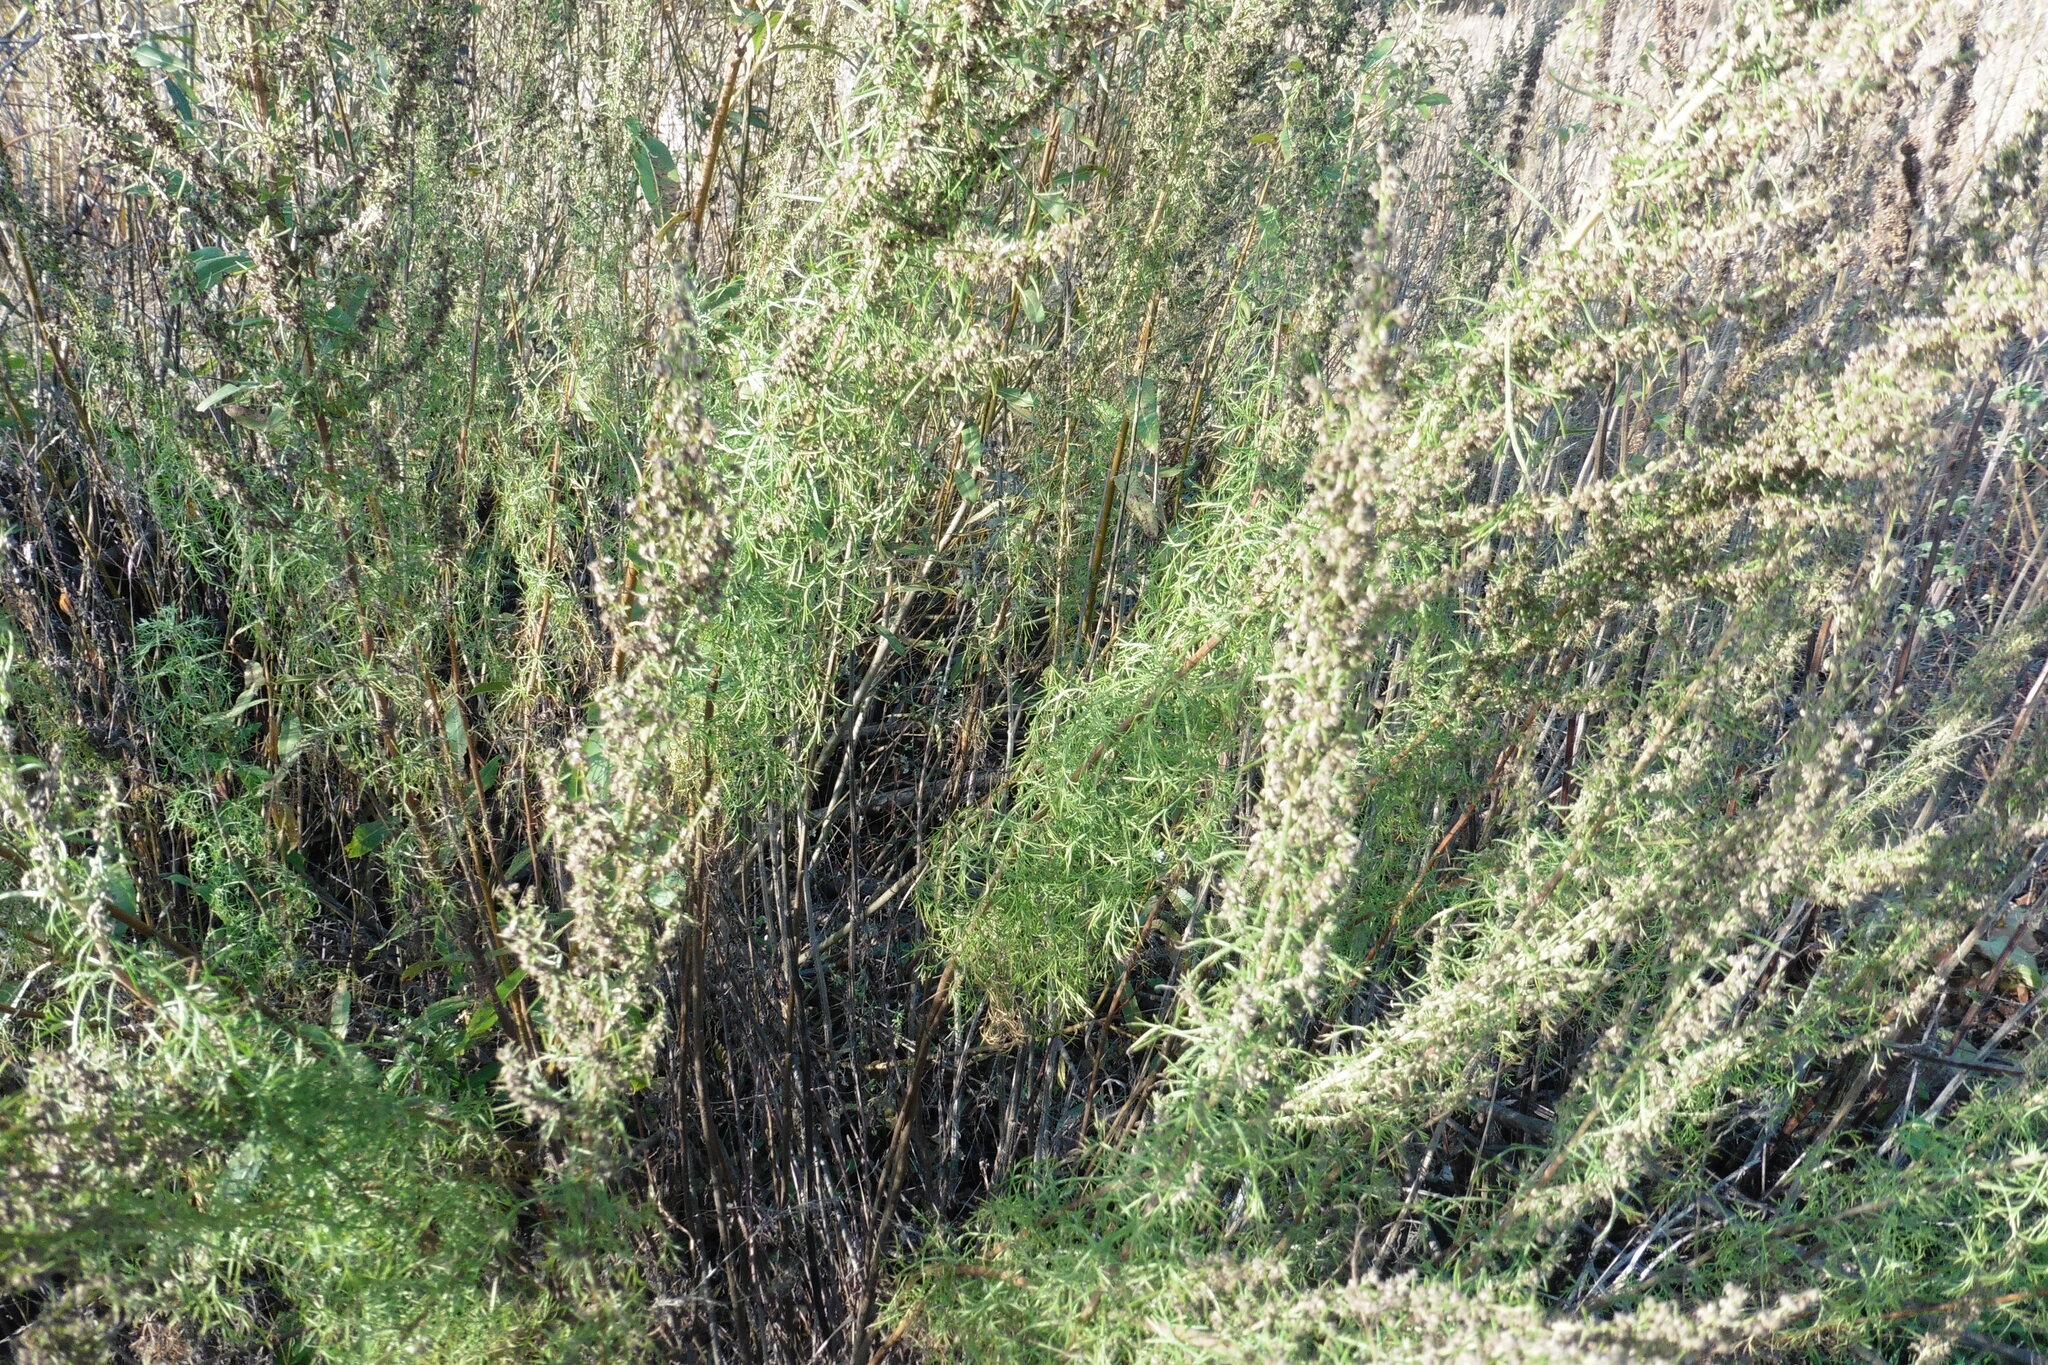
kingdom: Plantae
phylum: Tracheophyta
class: Magnoliopsida
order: Asterales
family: Asteraceae
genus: Artemisia
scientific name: Artemisia abrotanum
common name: Southernwood
